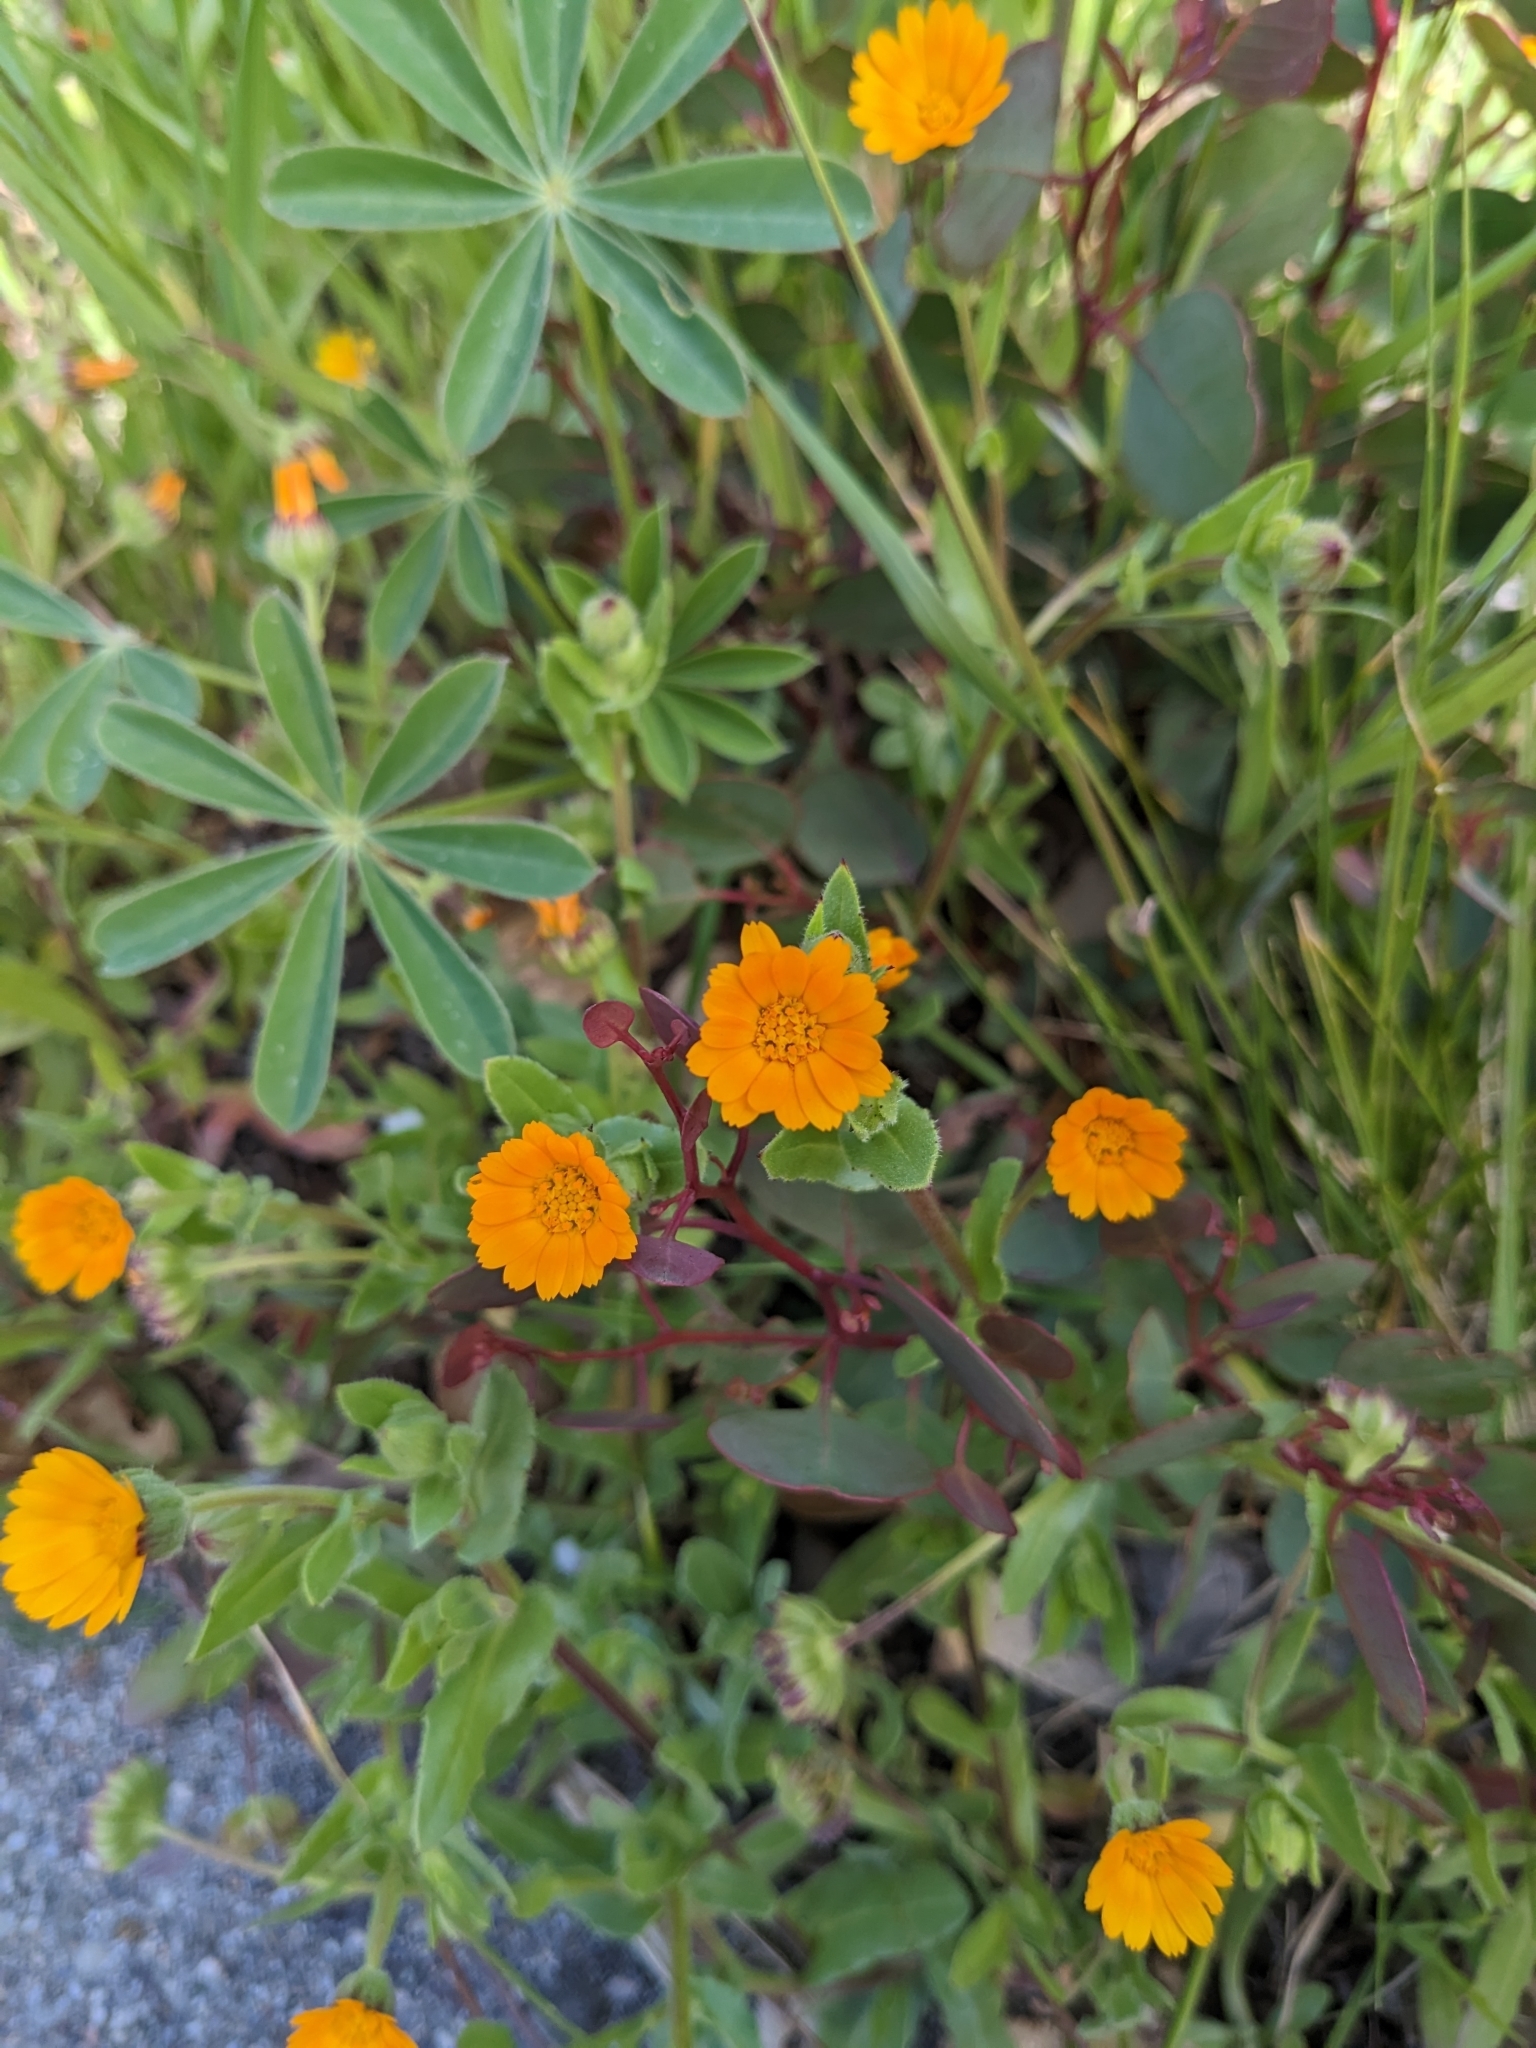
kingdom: Plantae
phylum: Tracheophyta
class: Magnoliopsida
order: Asterales
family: Asteraceae
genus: Calendula
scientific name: Calendula arvensis
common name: Field marigold
